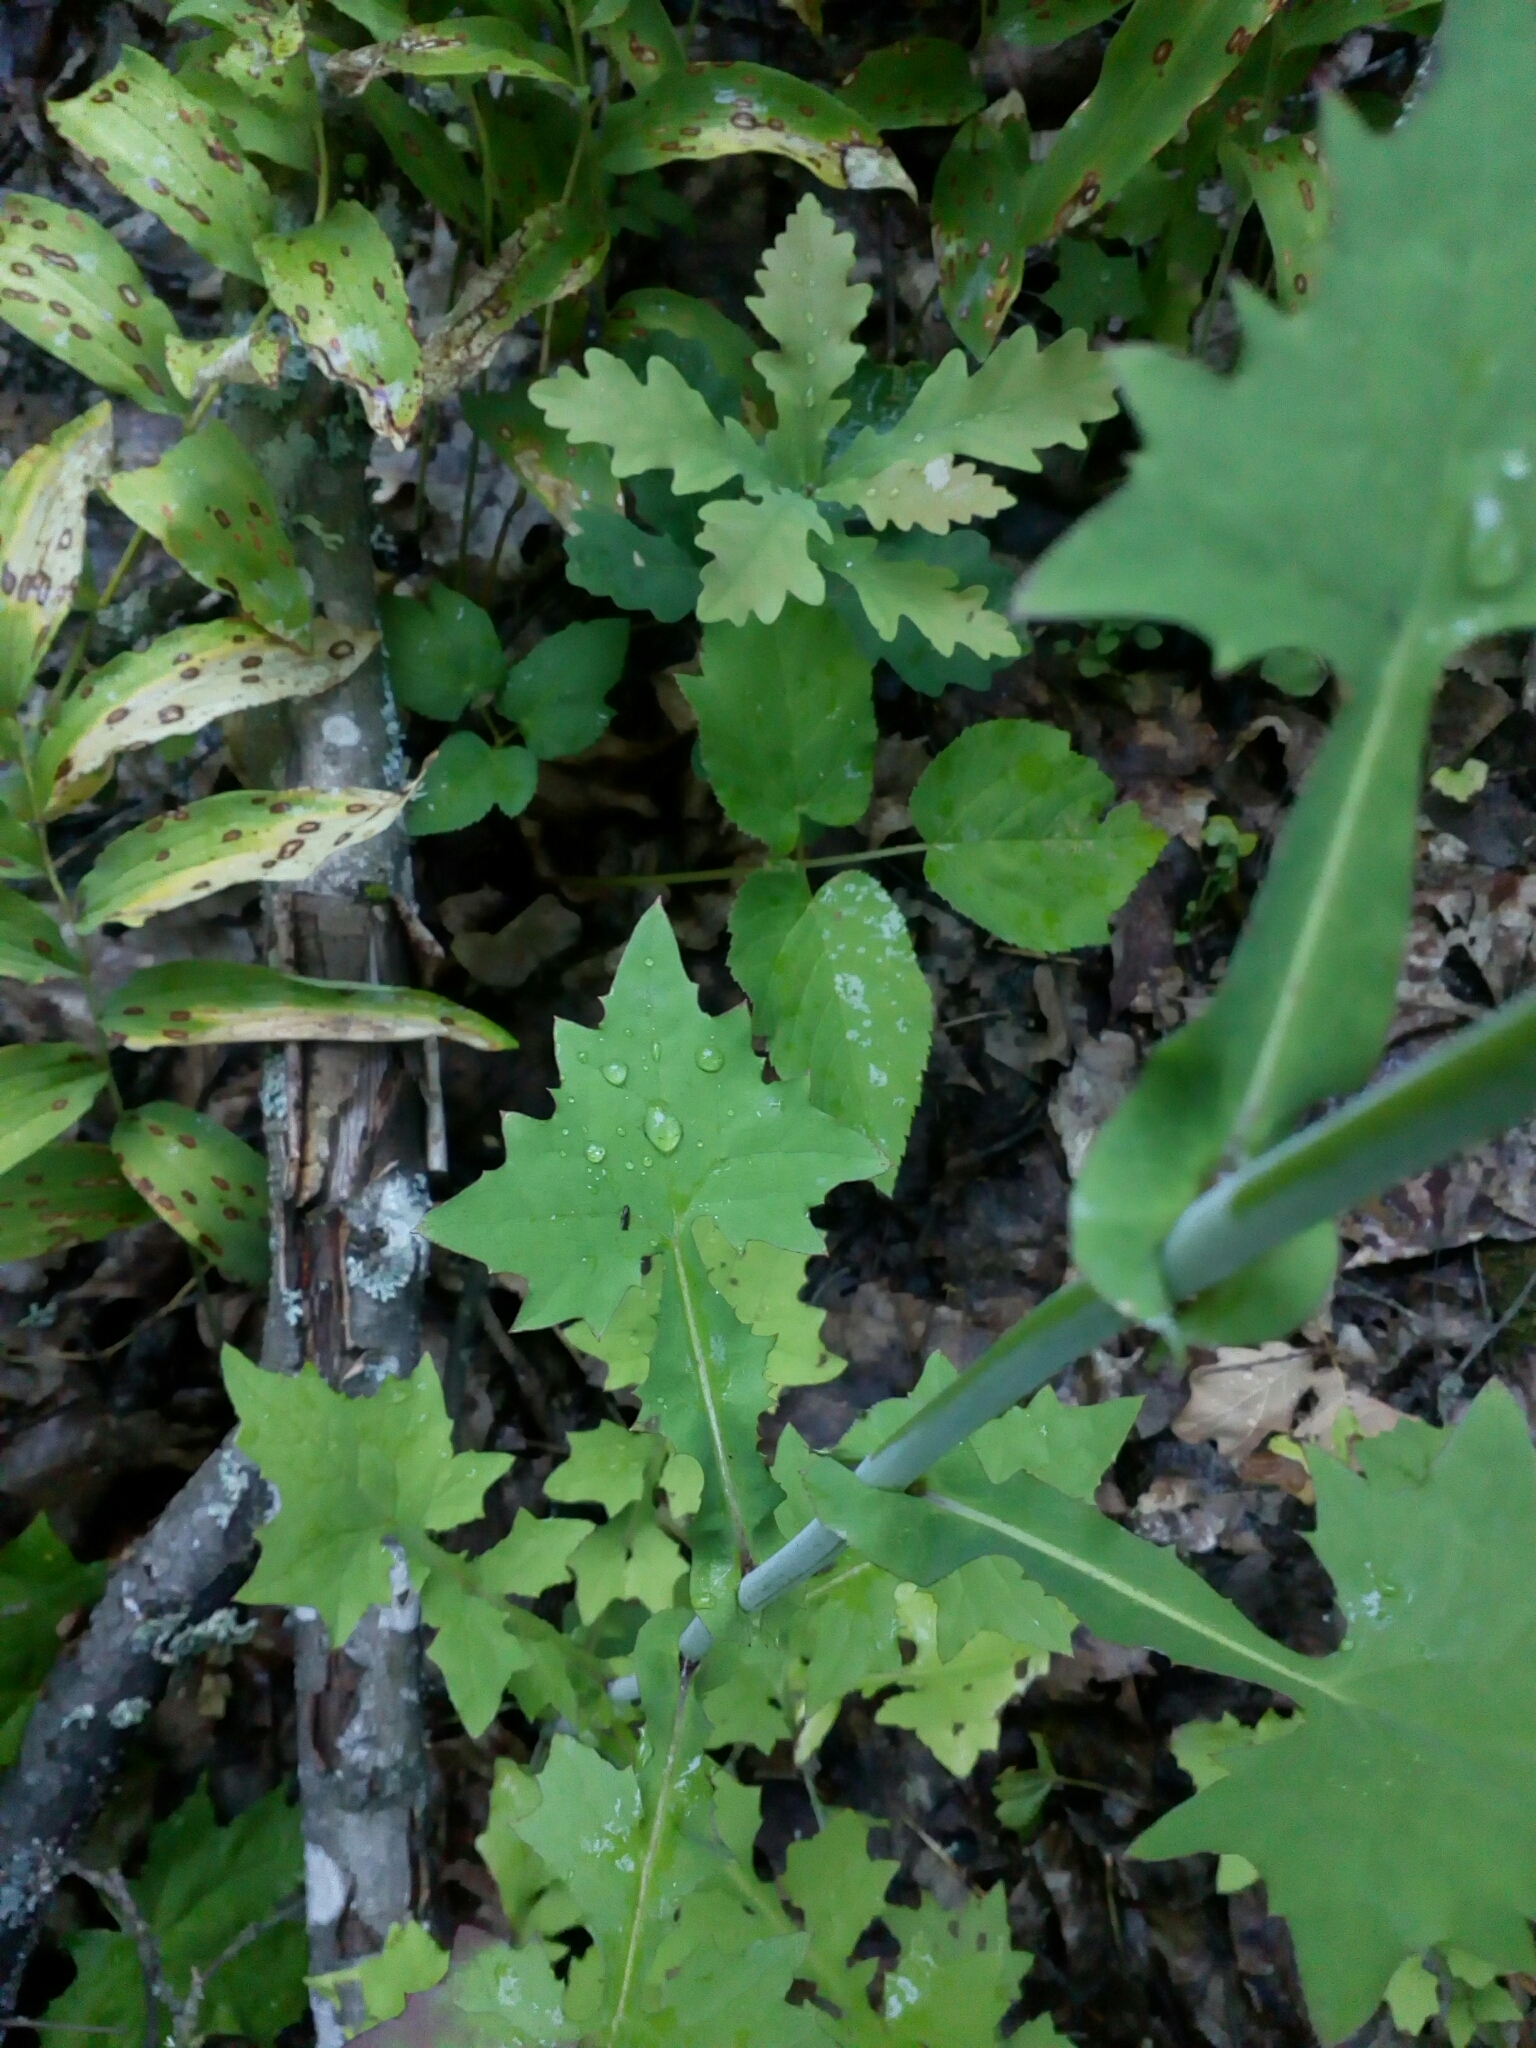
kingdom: Plantae
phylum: Tracheophyta
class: Magnoliopsida
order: Asterales
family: Asteraceae
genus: Mycelis
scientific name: Mycelis muralis
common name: Wall lettuce
